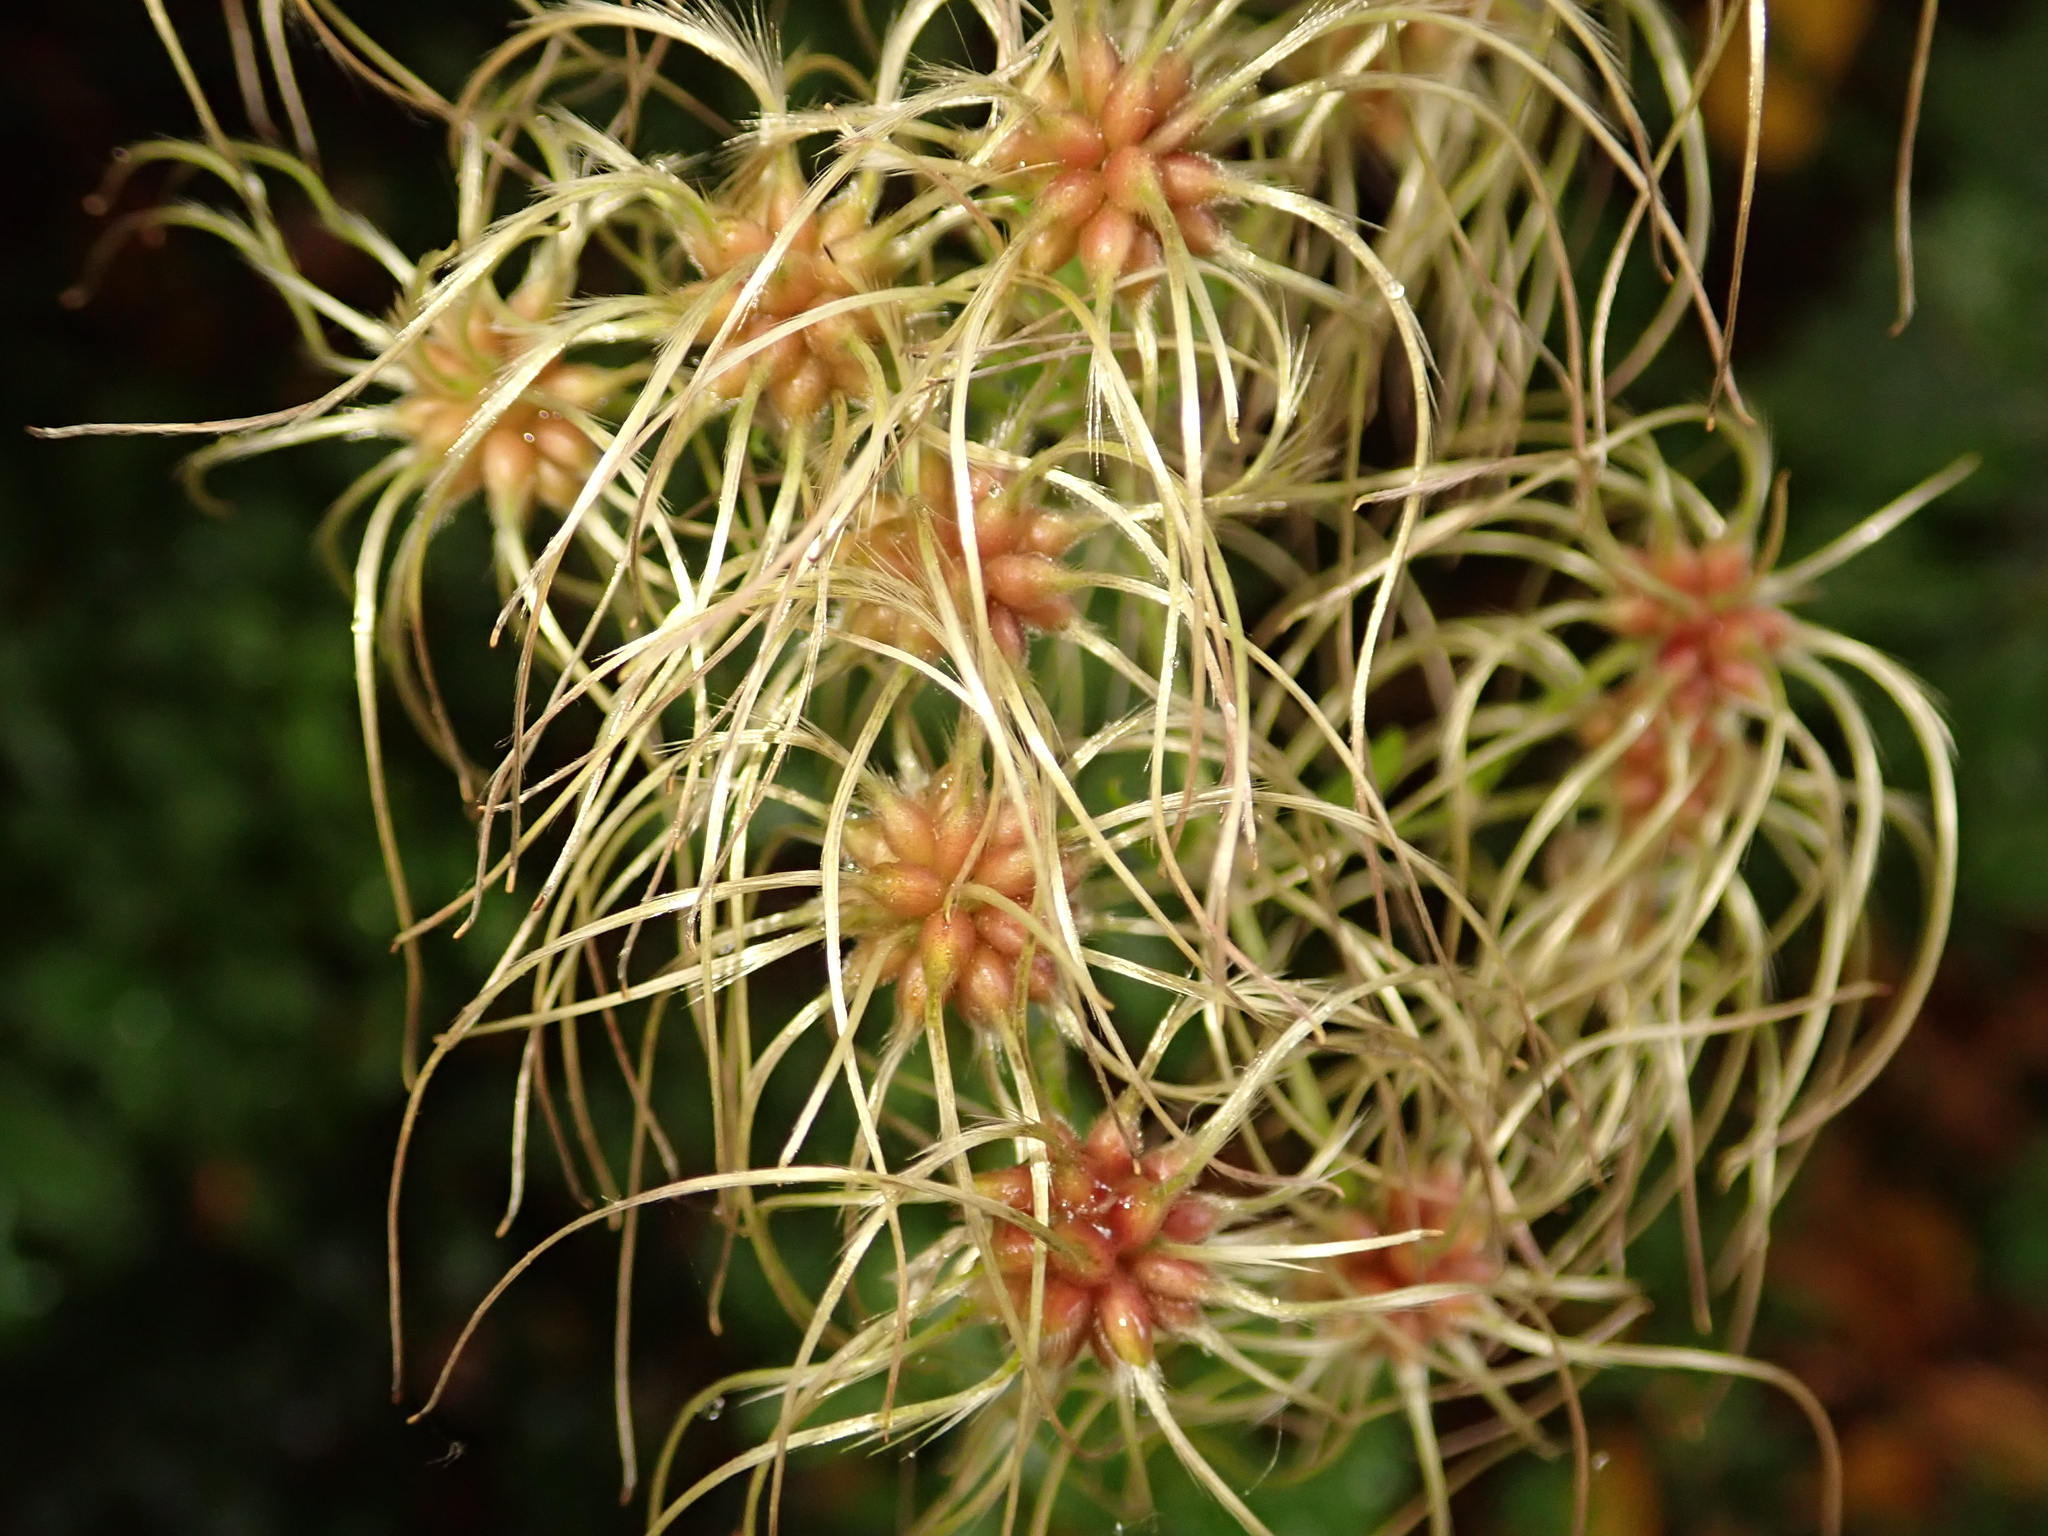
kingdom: Plantae
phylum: Tracheophyta
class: Magnoliopsida
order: Ranunculales
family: Ranunculaceae
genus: Clematis
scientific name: Clematis vitalba
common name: Evergreen clematis
